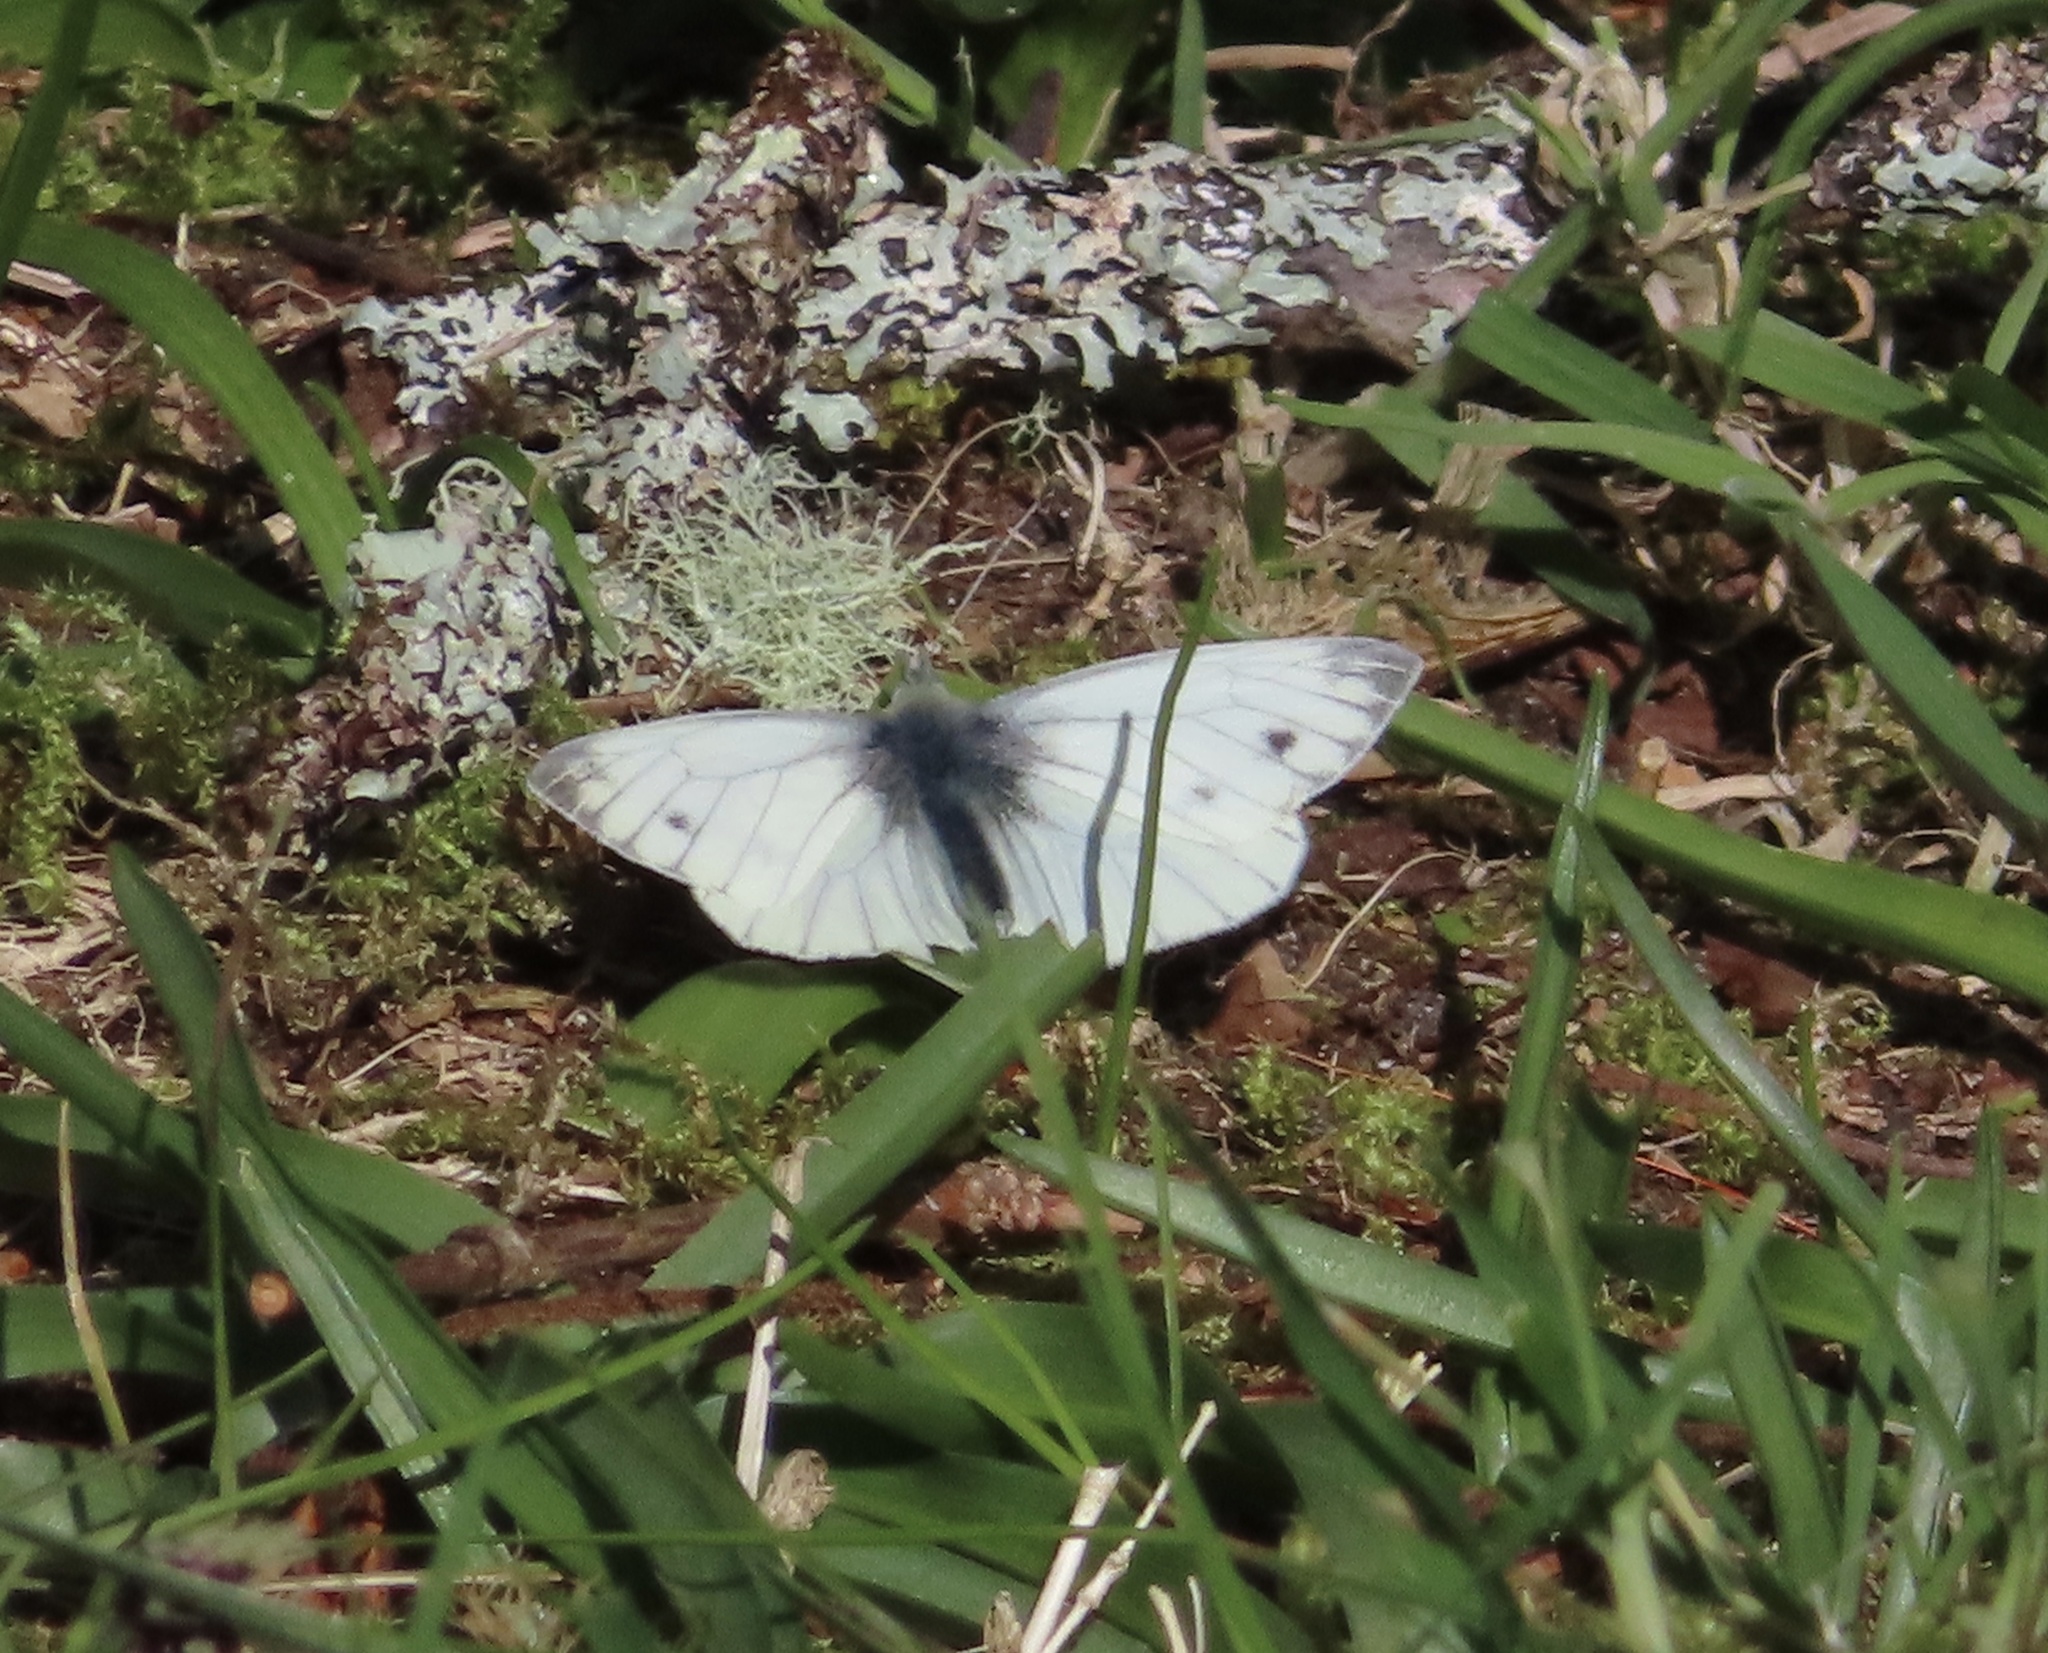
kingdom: Animalia
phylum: Arthropoda
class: Insecta
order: Lepidoptera
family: Pieridae
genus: Pieris
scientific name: Pieris napi
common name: Green-veined white
